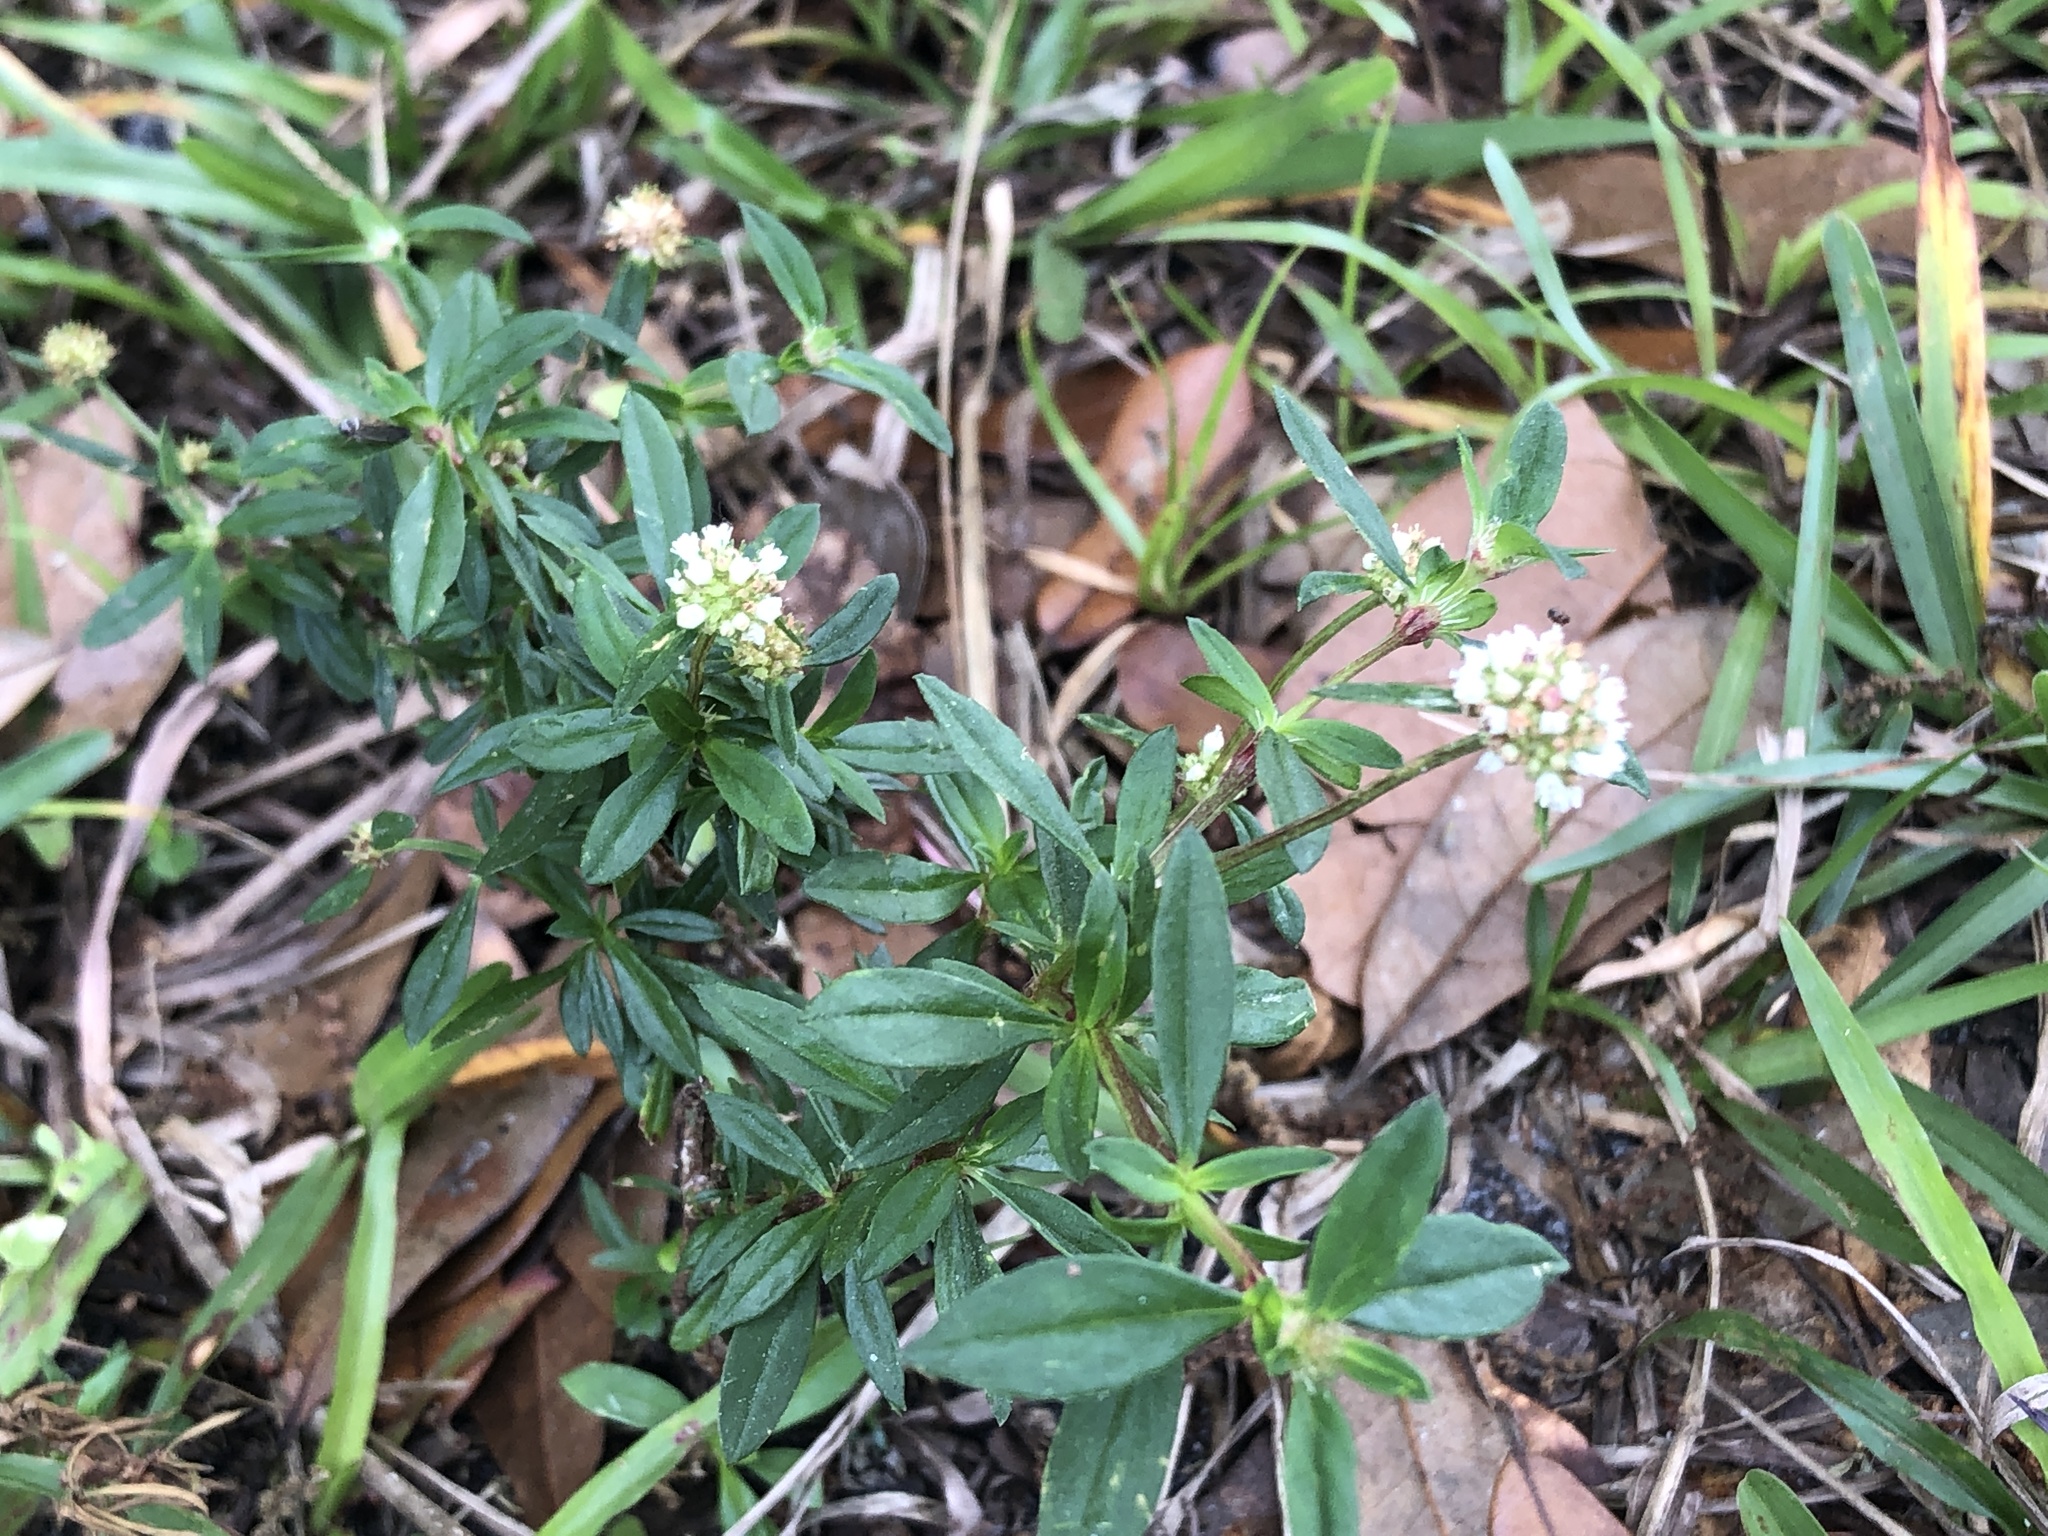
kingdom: Plantae
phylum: Tracheophyta
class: Magnoliopsida
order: Gentianales
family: Rubiaceae
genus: Spermacoce
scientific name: Spermacoce verticillata
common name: Shrubby false buttonweed
